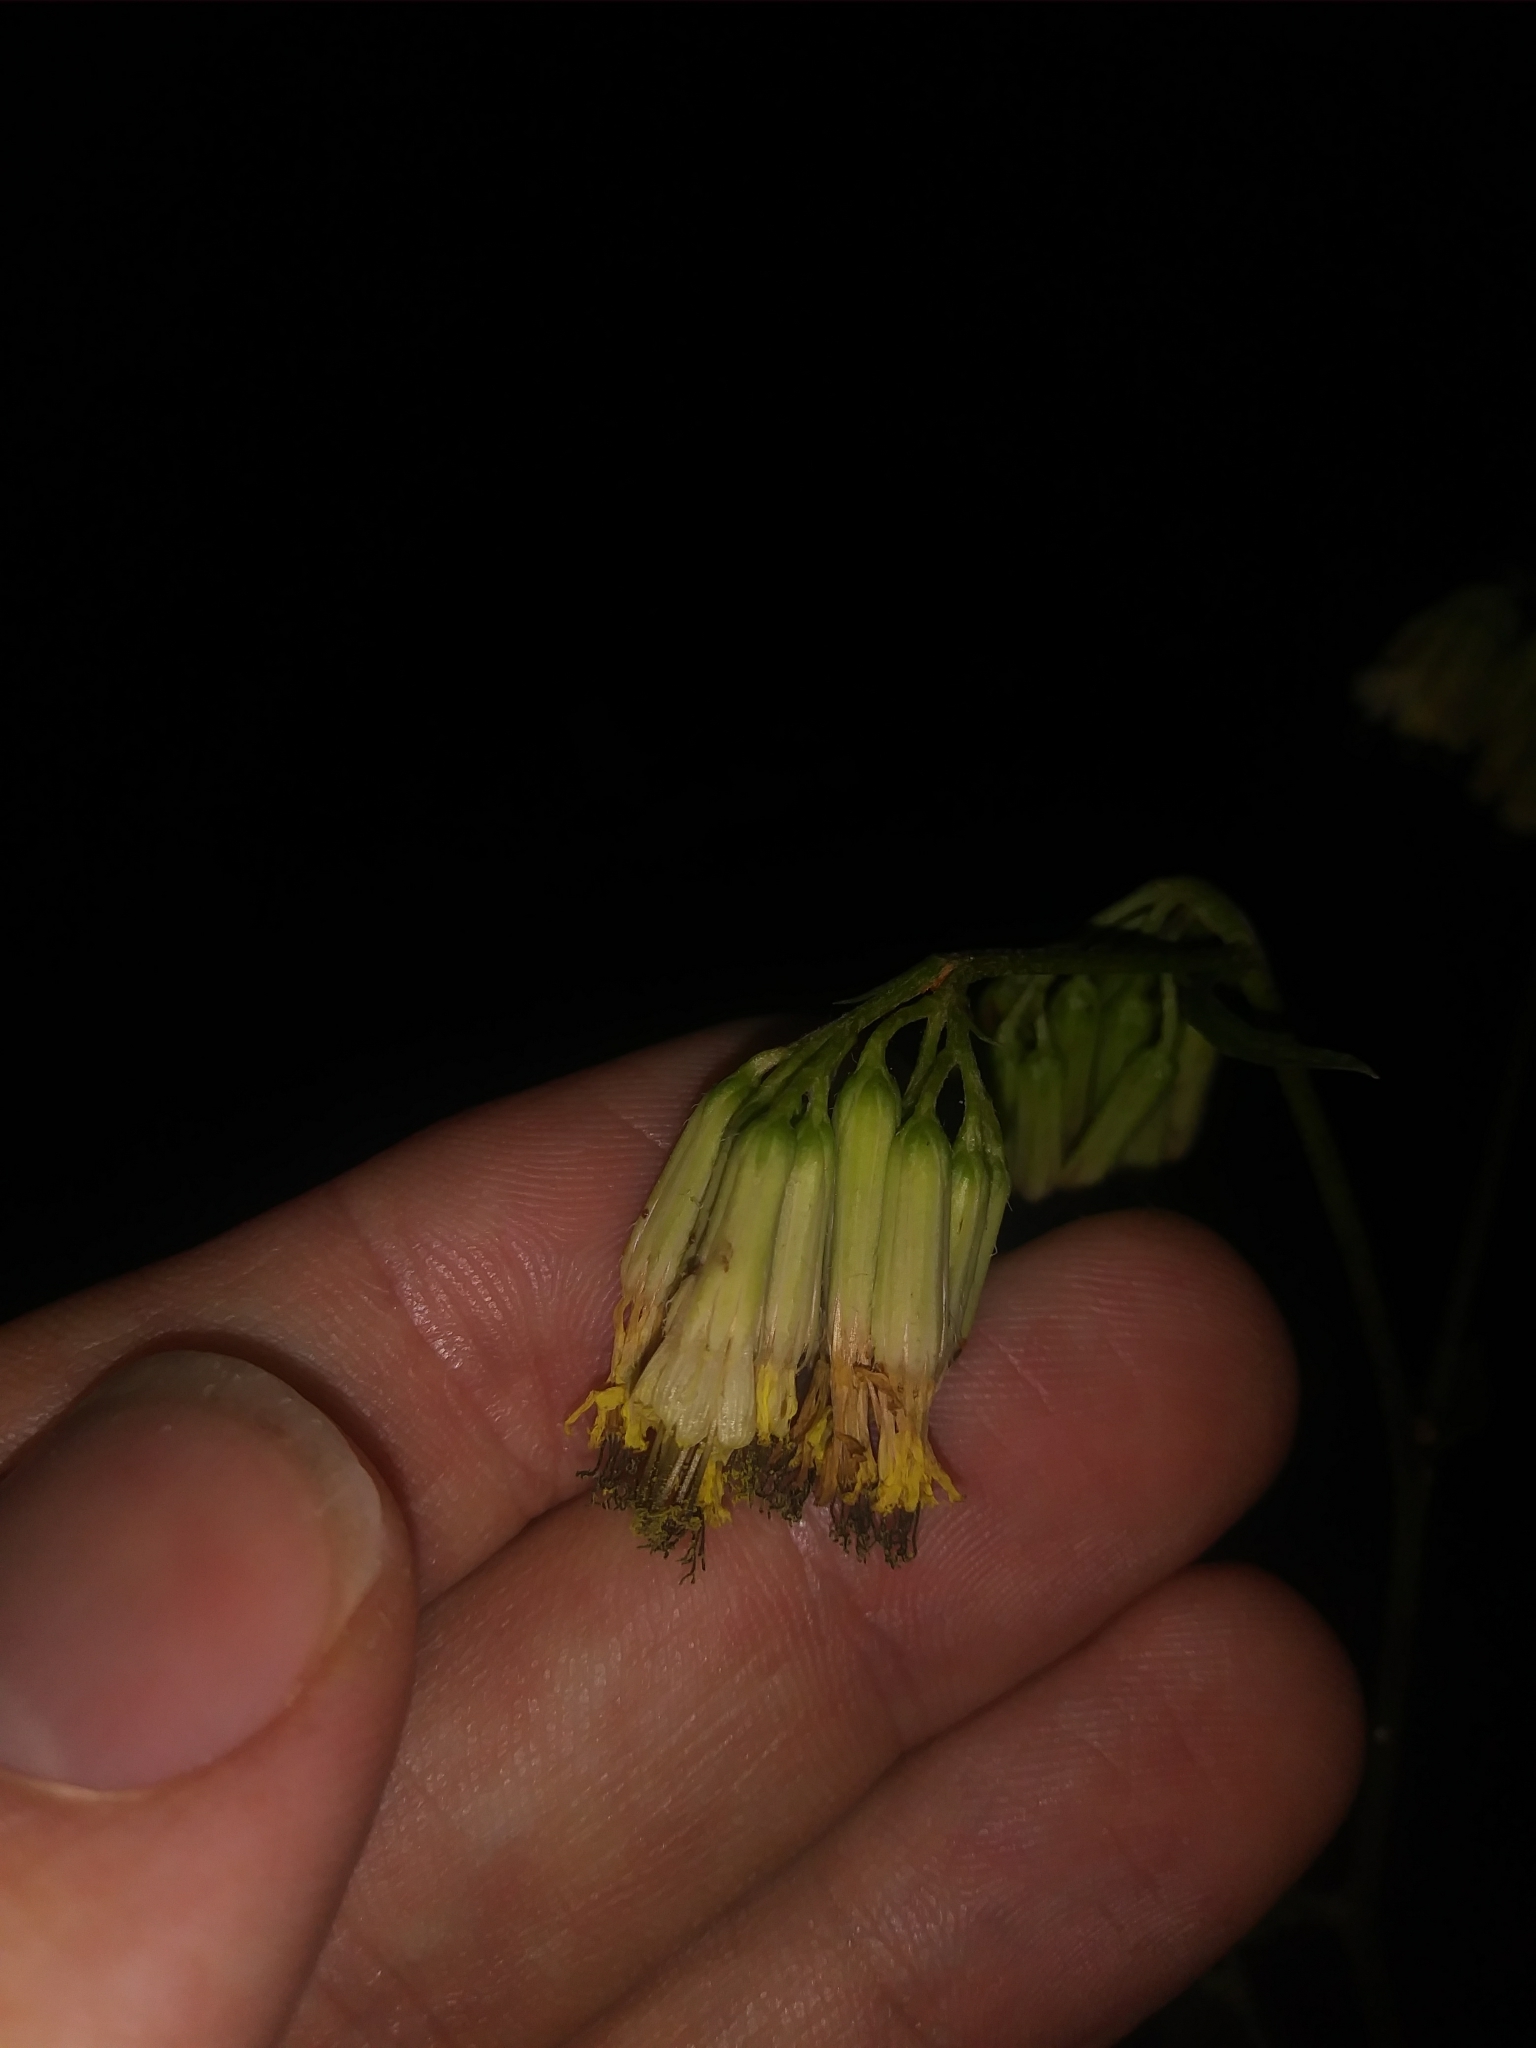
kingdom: Plantae
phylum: Tracheophyta
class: Magnoliopsida
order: Asterales
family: Asteraceae
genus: Nabalus
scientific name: Nabalus serpentarius
